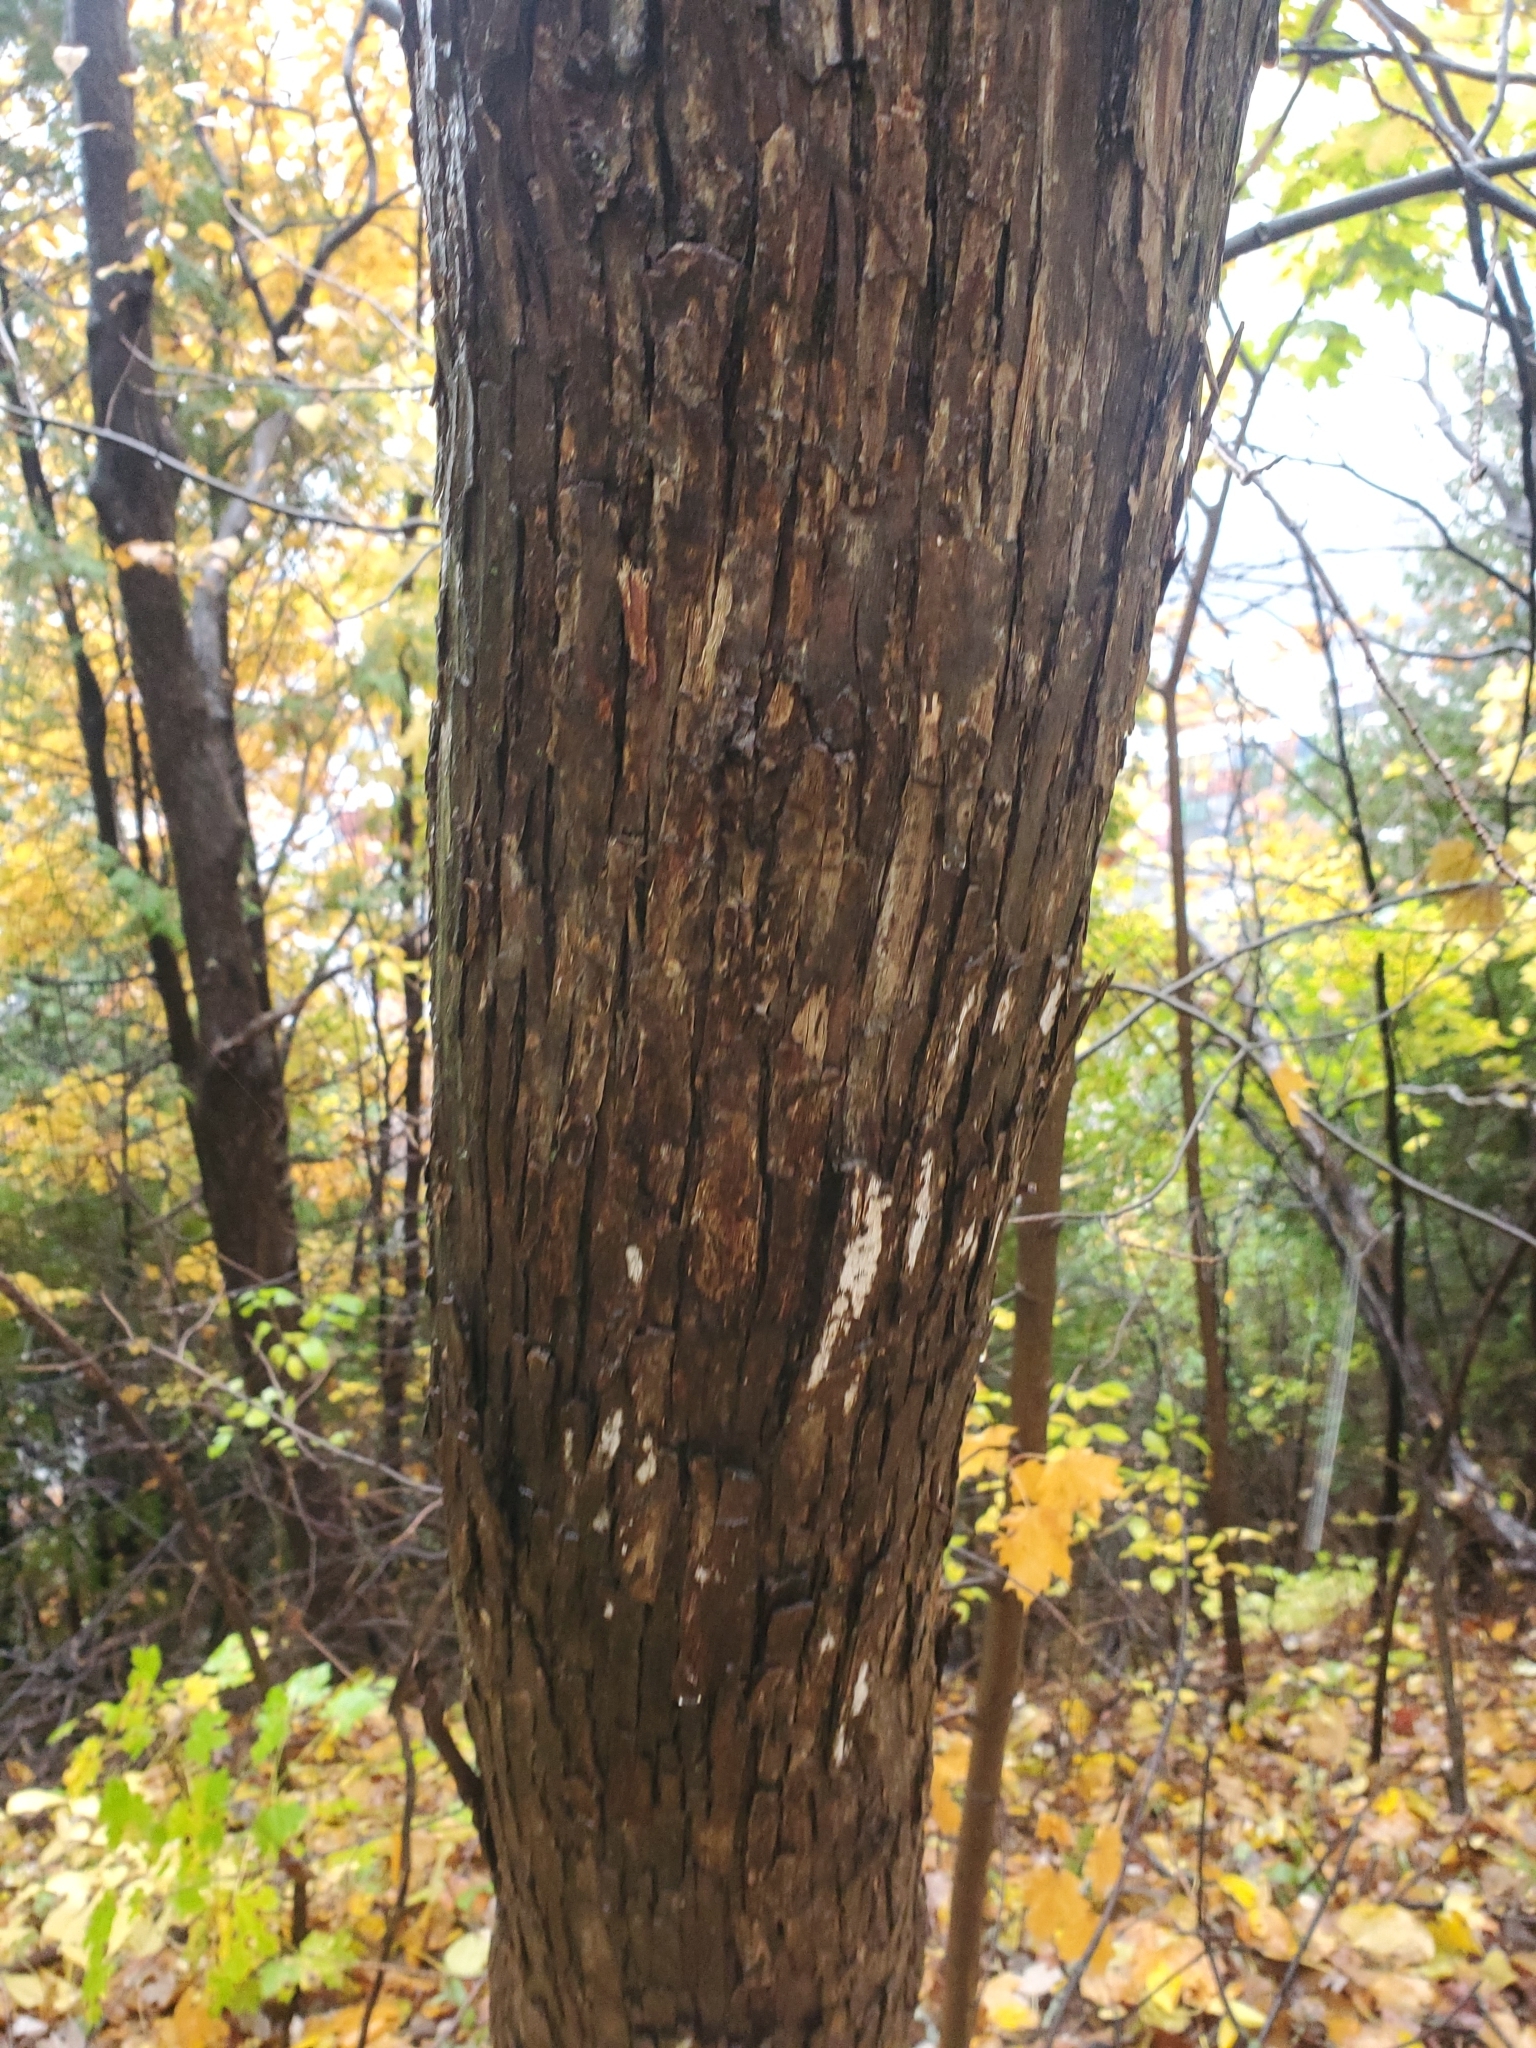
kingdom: Plantae
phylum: Tracheophyta
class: Magnoliopsida
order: Fagales
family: Betulaceae
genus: Ostrya
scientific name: Ostrya virginiana
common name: Ironwood
